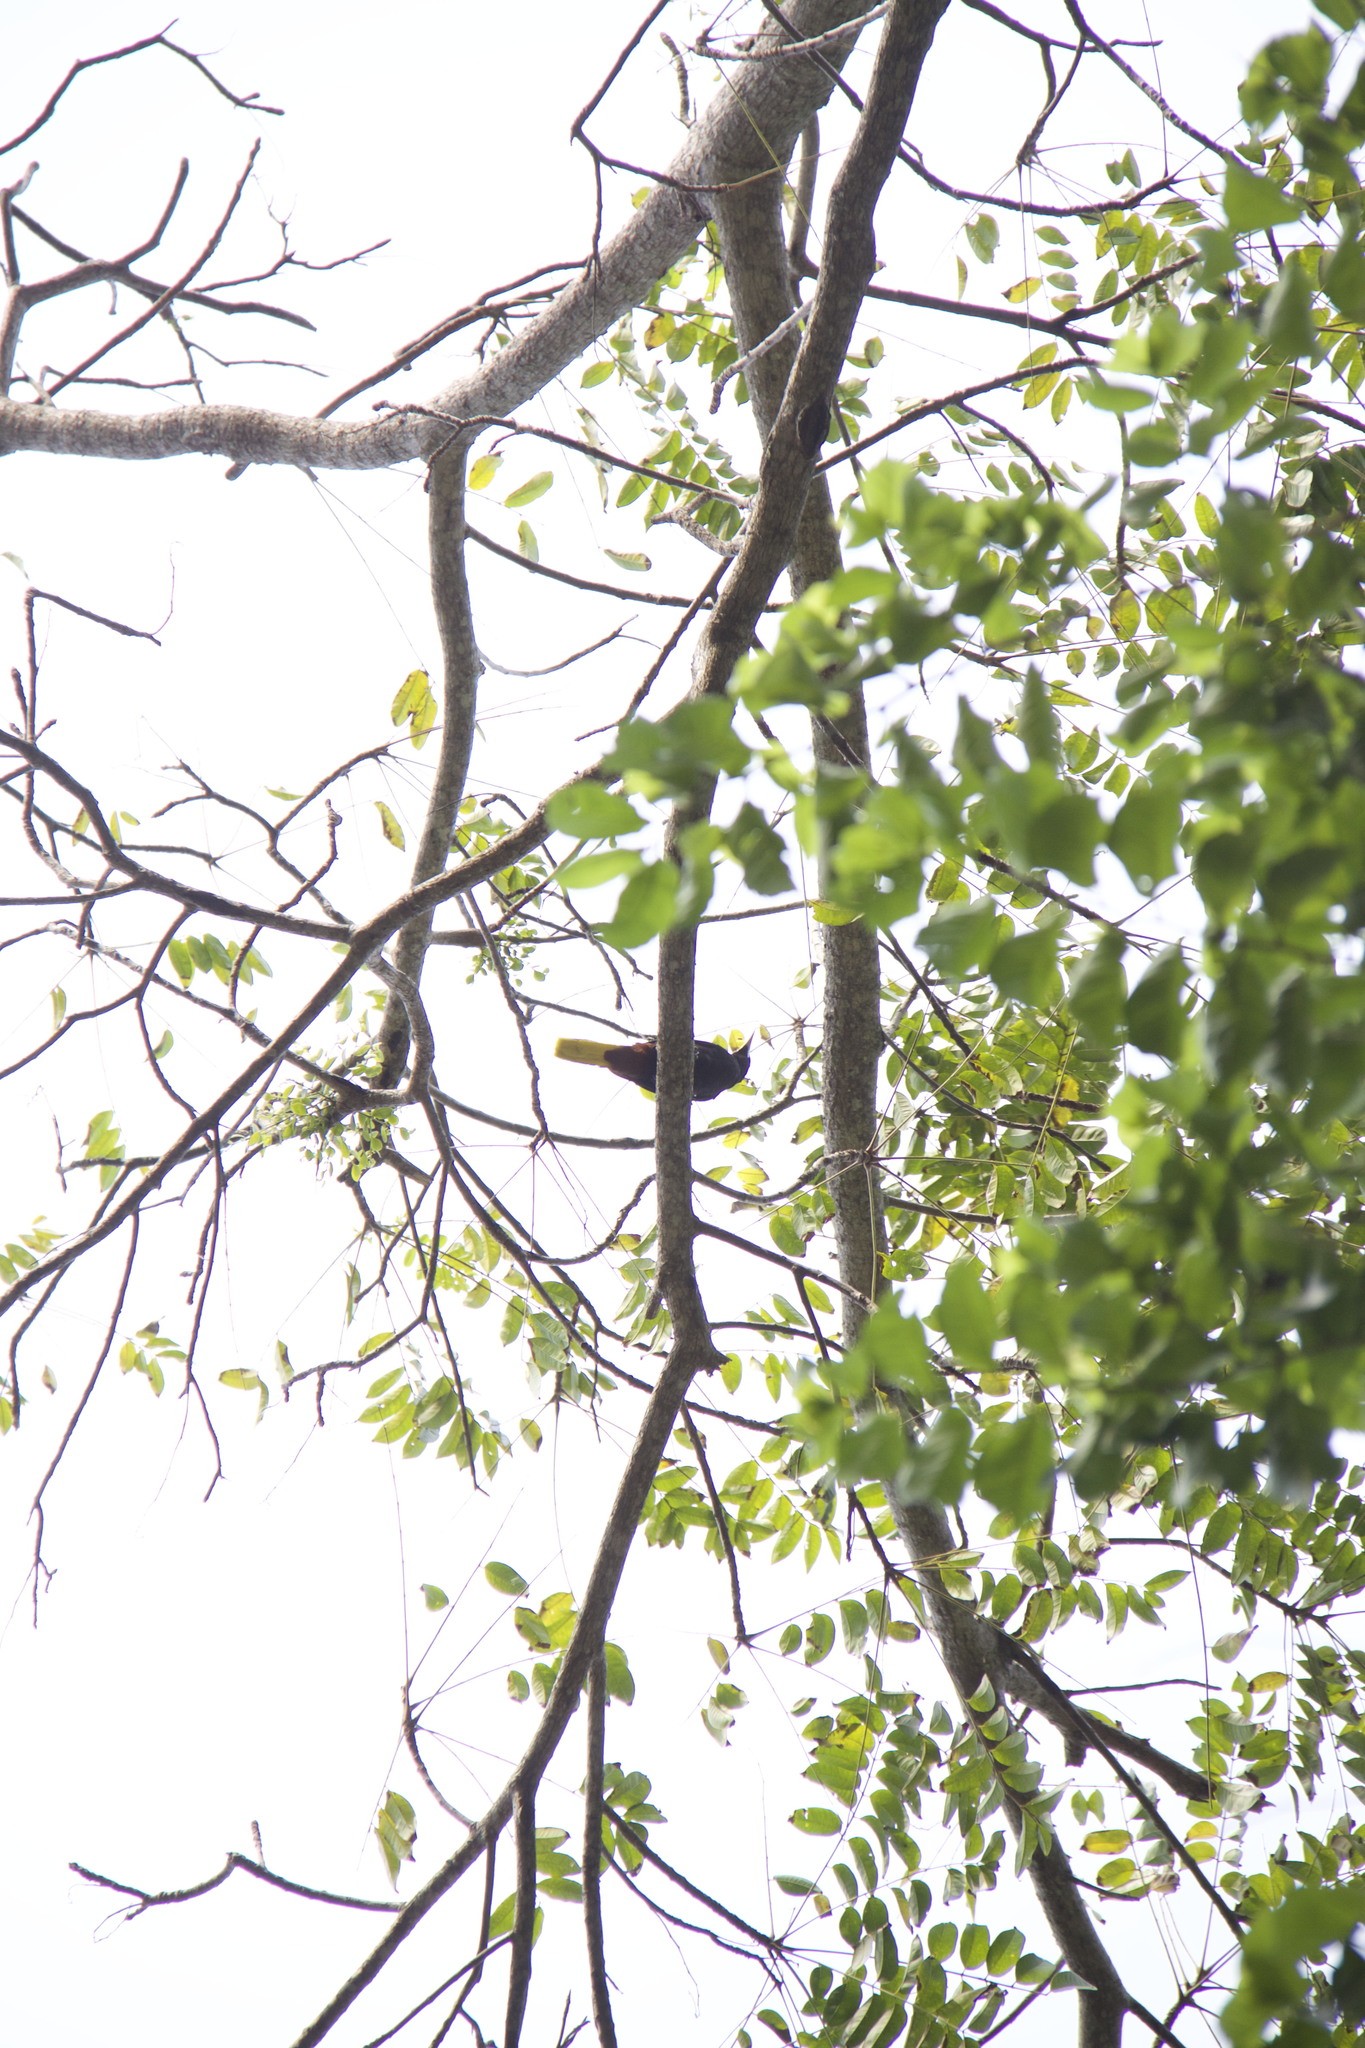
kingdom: Animalia
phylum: Chordata
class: Aves
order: Passeriformes
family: Icteridae
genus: Psarocolius
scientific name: Psarocolius decumanus
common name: Crested oropendola
